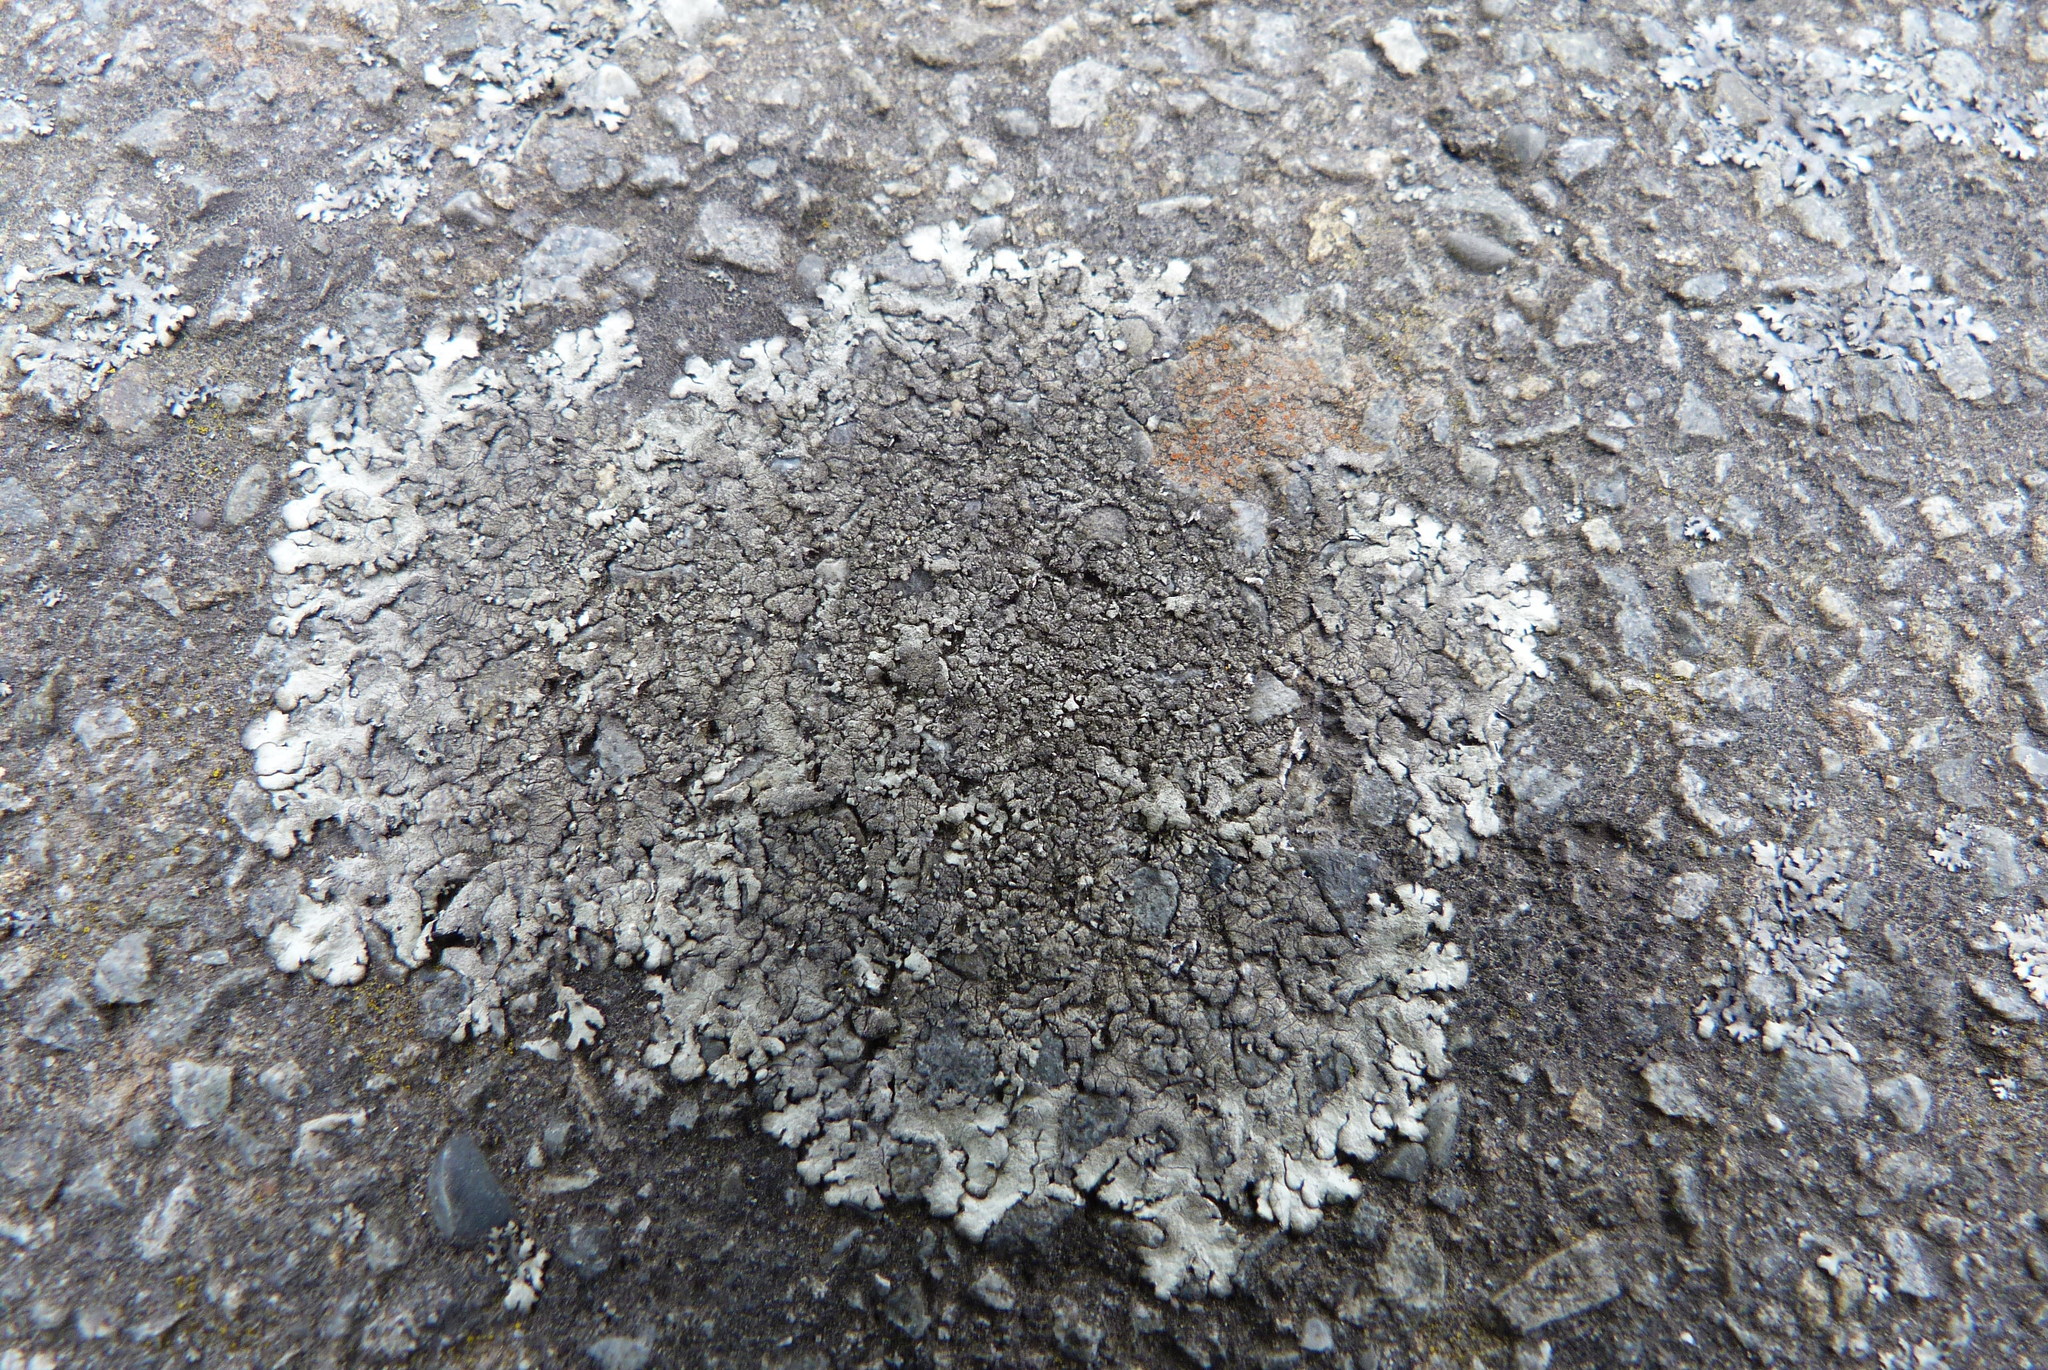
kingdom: Fungi
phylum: Ascomycota
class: Lecanoromycetes
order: Lecanorales
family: Parmeliaceae
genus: Xanthoparmelia
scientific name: Xanthoparmelia scabrosa
